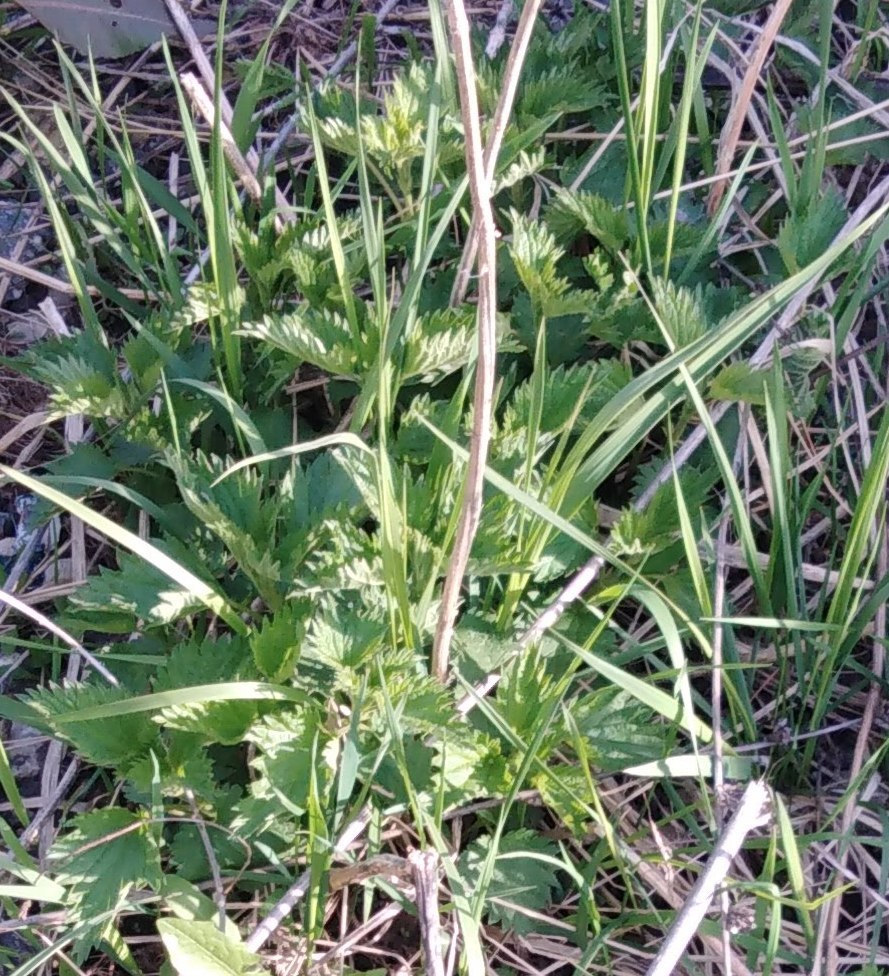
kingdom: Plantae
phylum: Tracheophyta
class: Magnoliopsida
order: Rosales
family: Urticaceae
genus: Urtica
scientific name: Urtica dioica
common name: Common nettle
